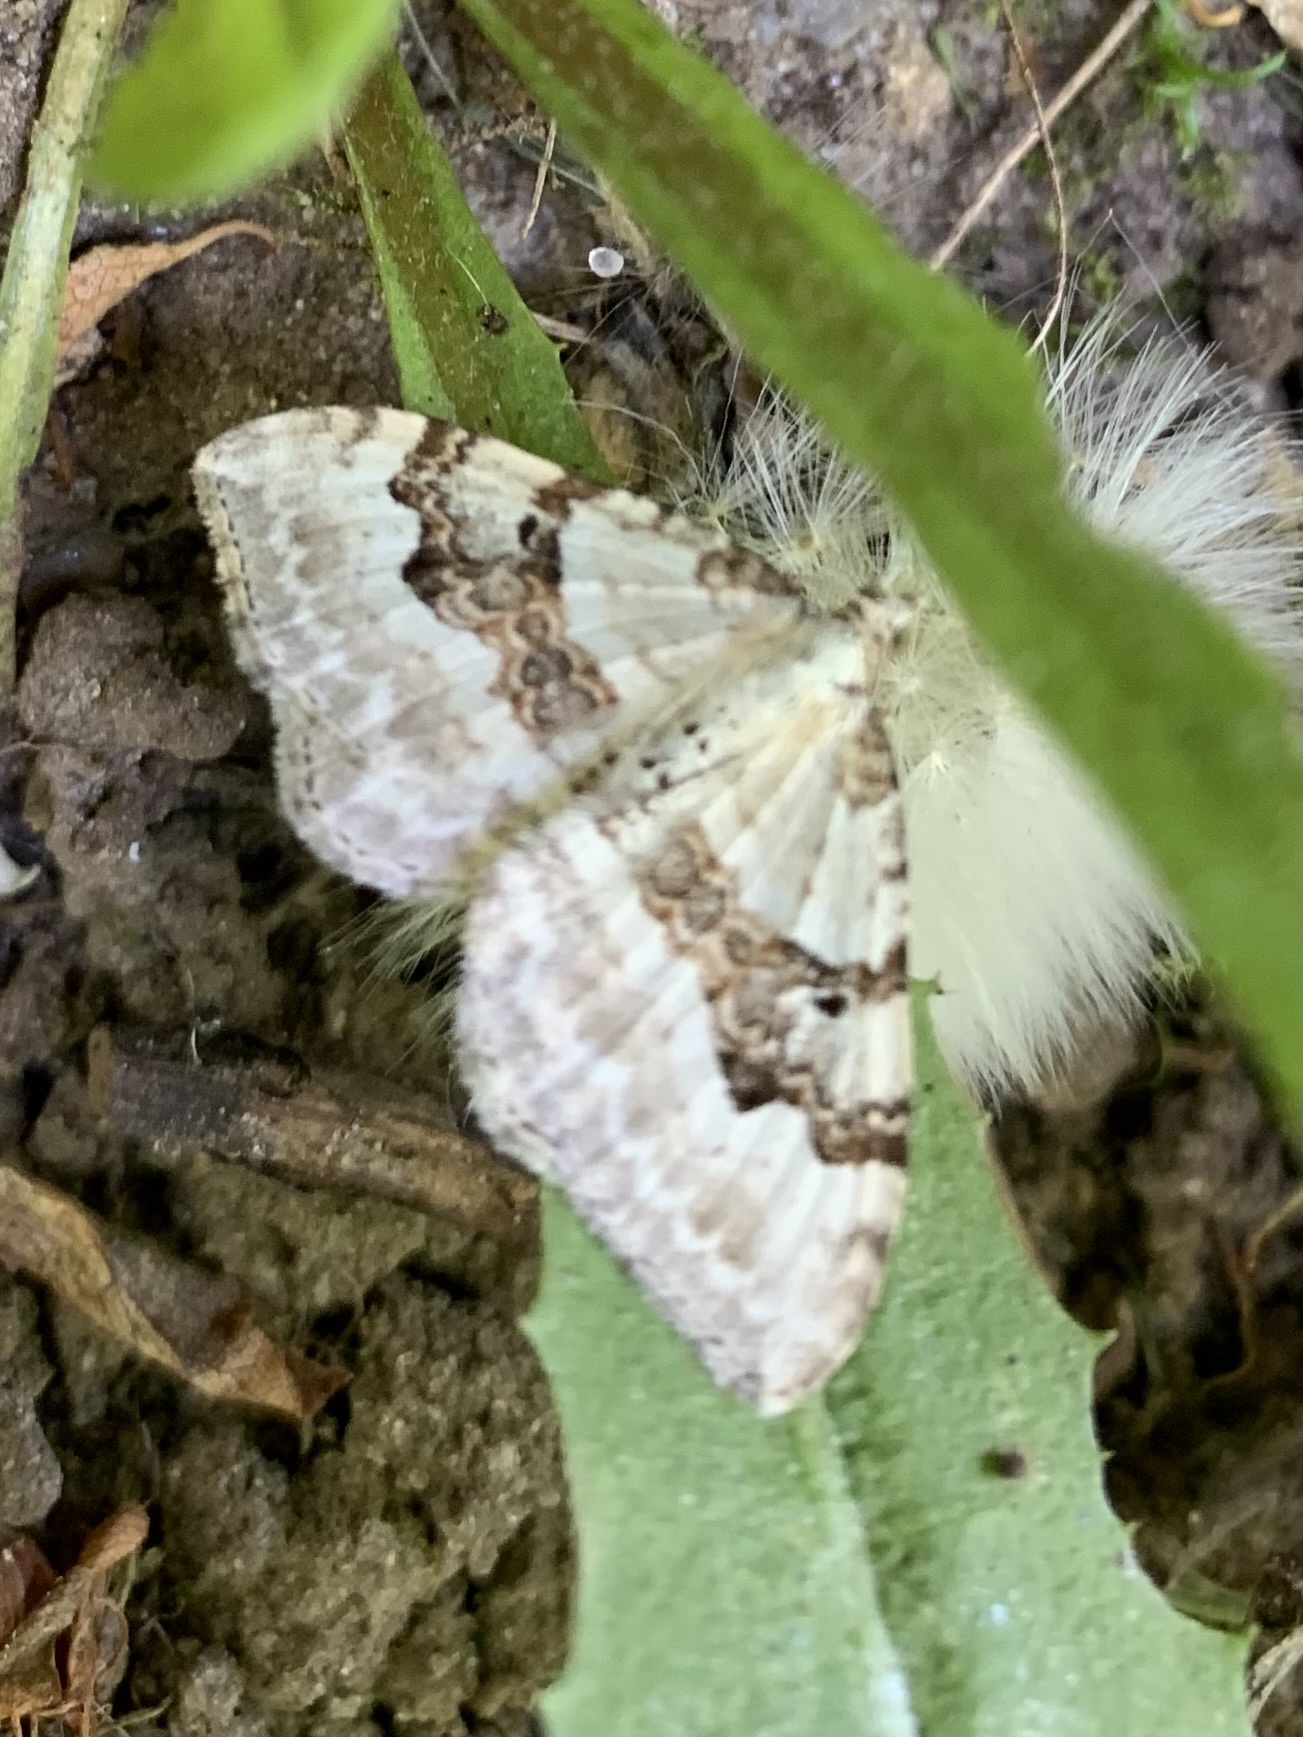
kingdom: Animalia
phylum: Arthropoda
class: Insecta
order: Lepidoptera
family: Geometridae
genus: Xanthorhoe
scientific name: Xanthorhoe montanata
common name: Silver-ground carpet
